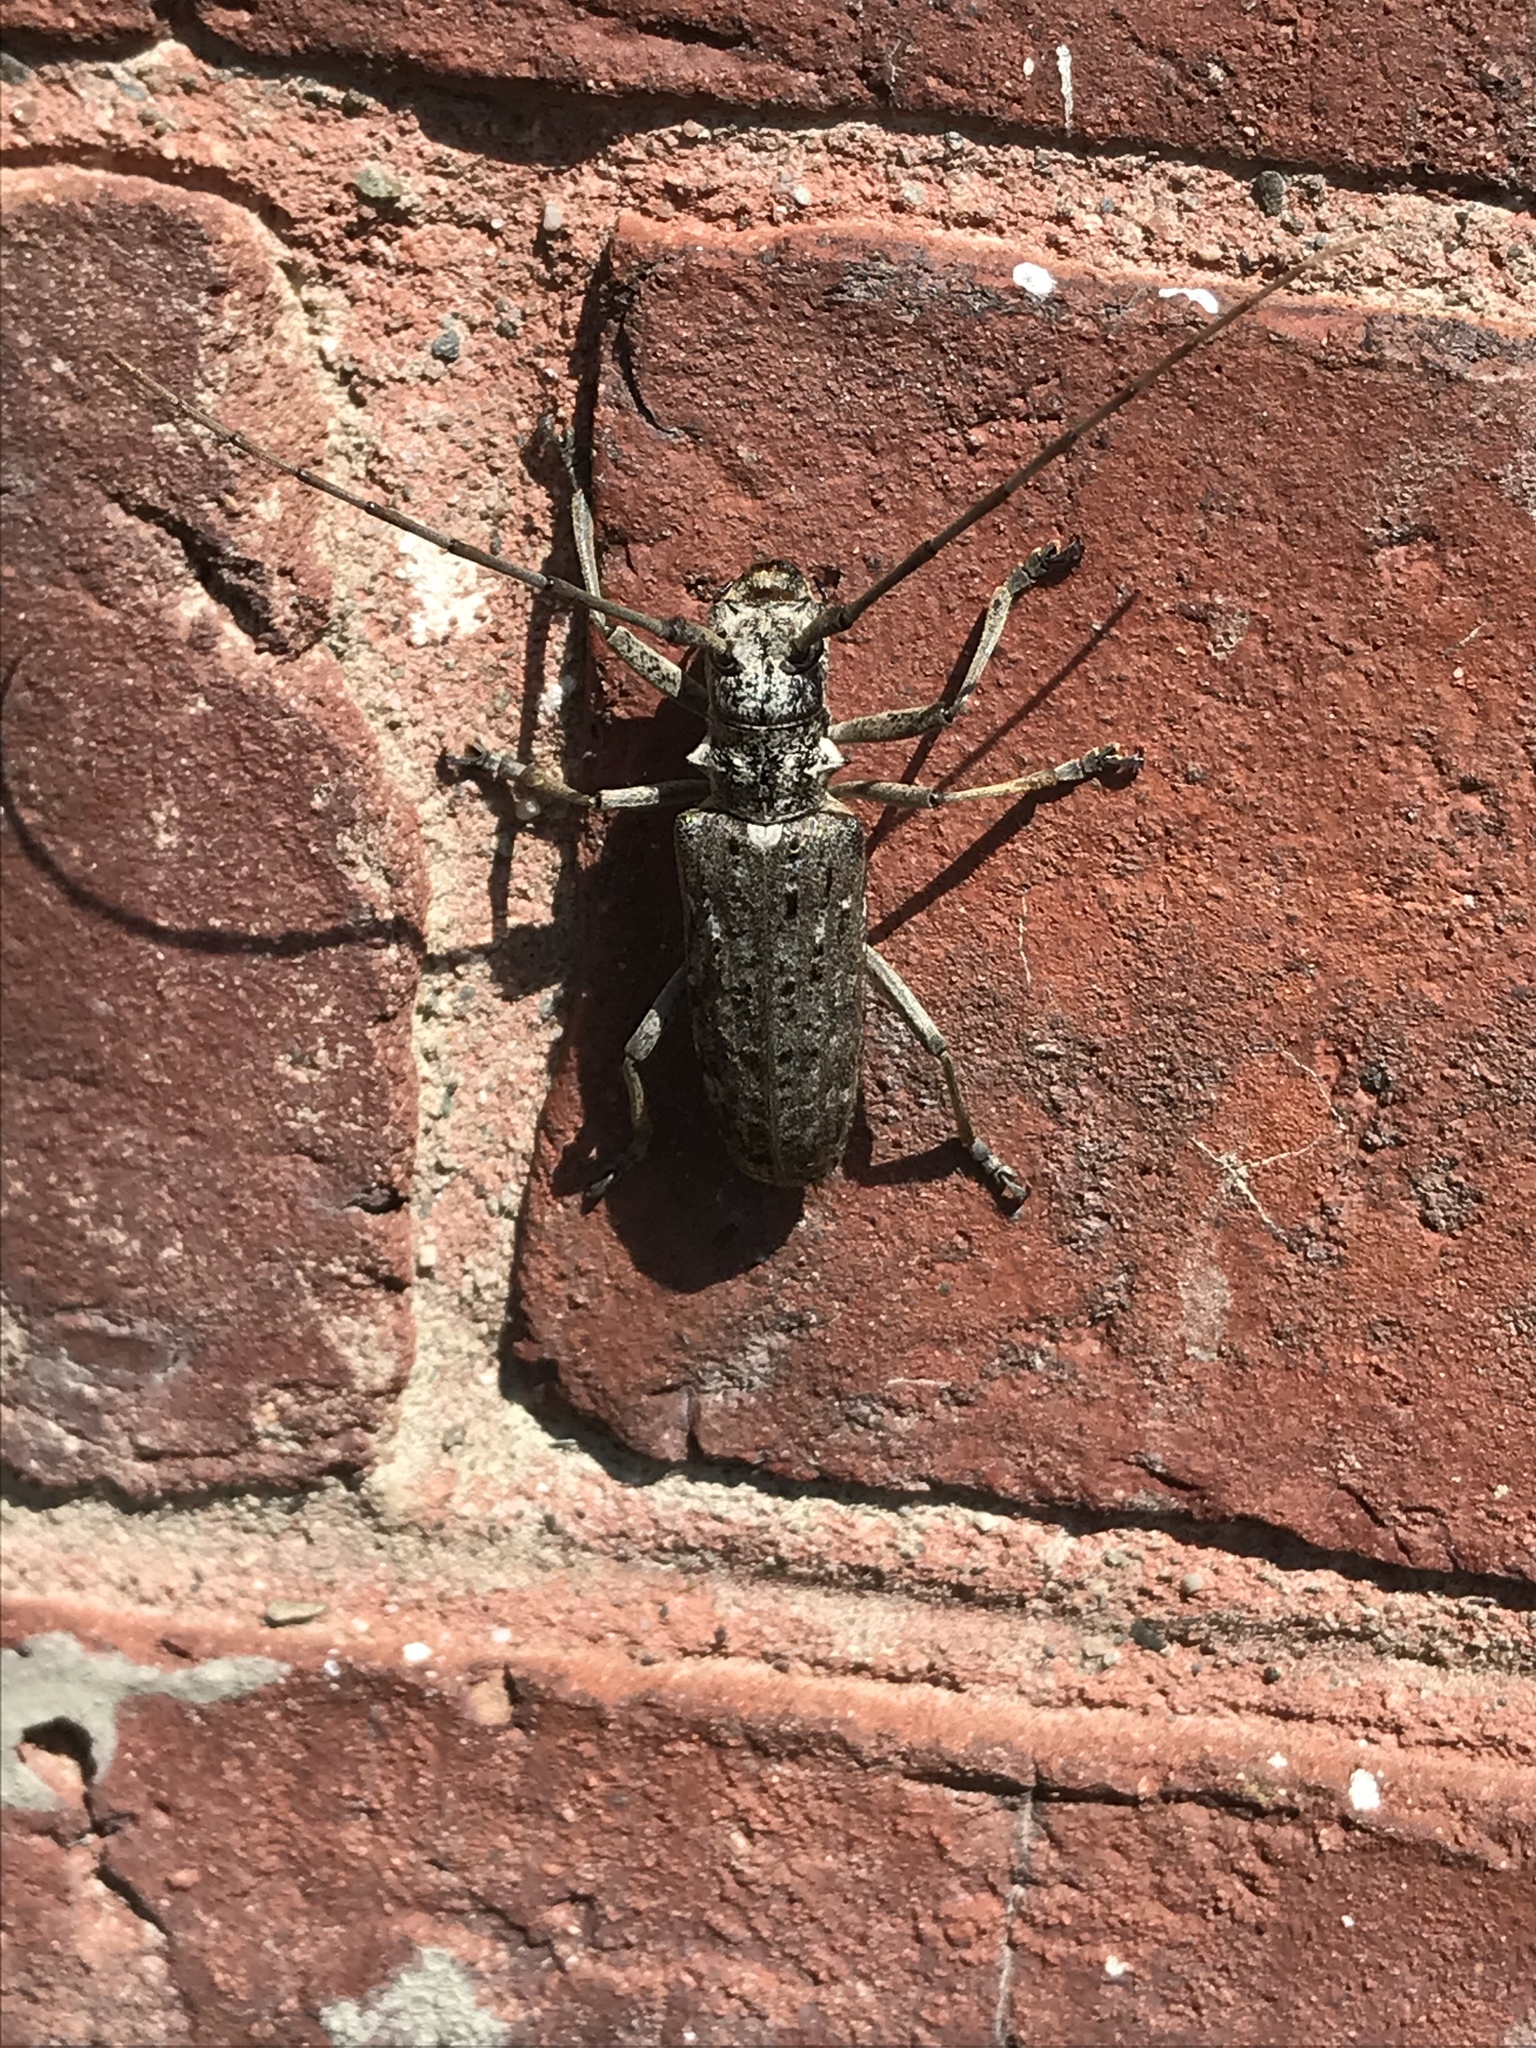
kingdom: Animalia
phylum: Arthropoda
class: Insecta
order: Coleoptera
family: Cerambycidae
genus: Monochamus
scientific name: Monochamus notatus
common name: Northeastern pine sawyer beetle
